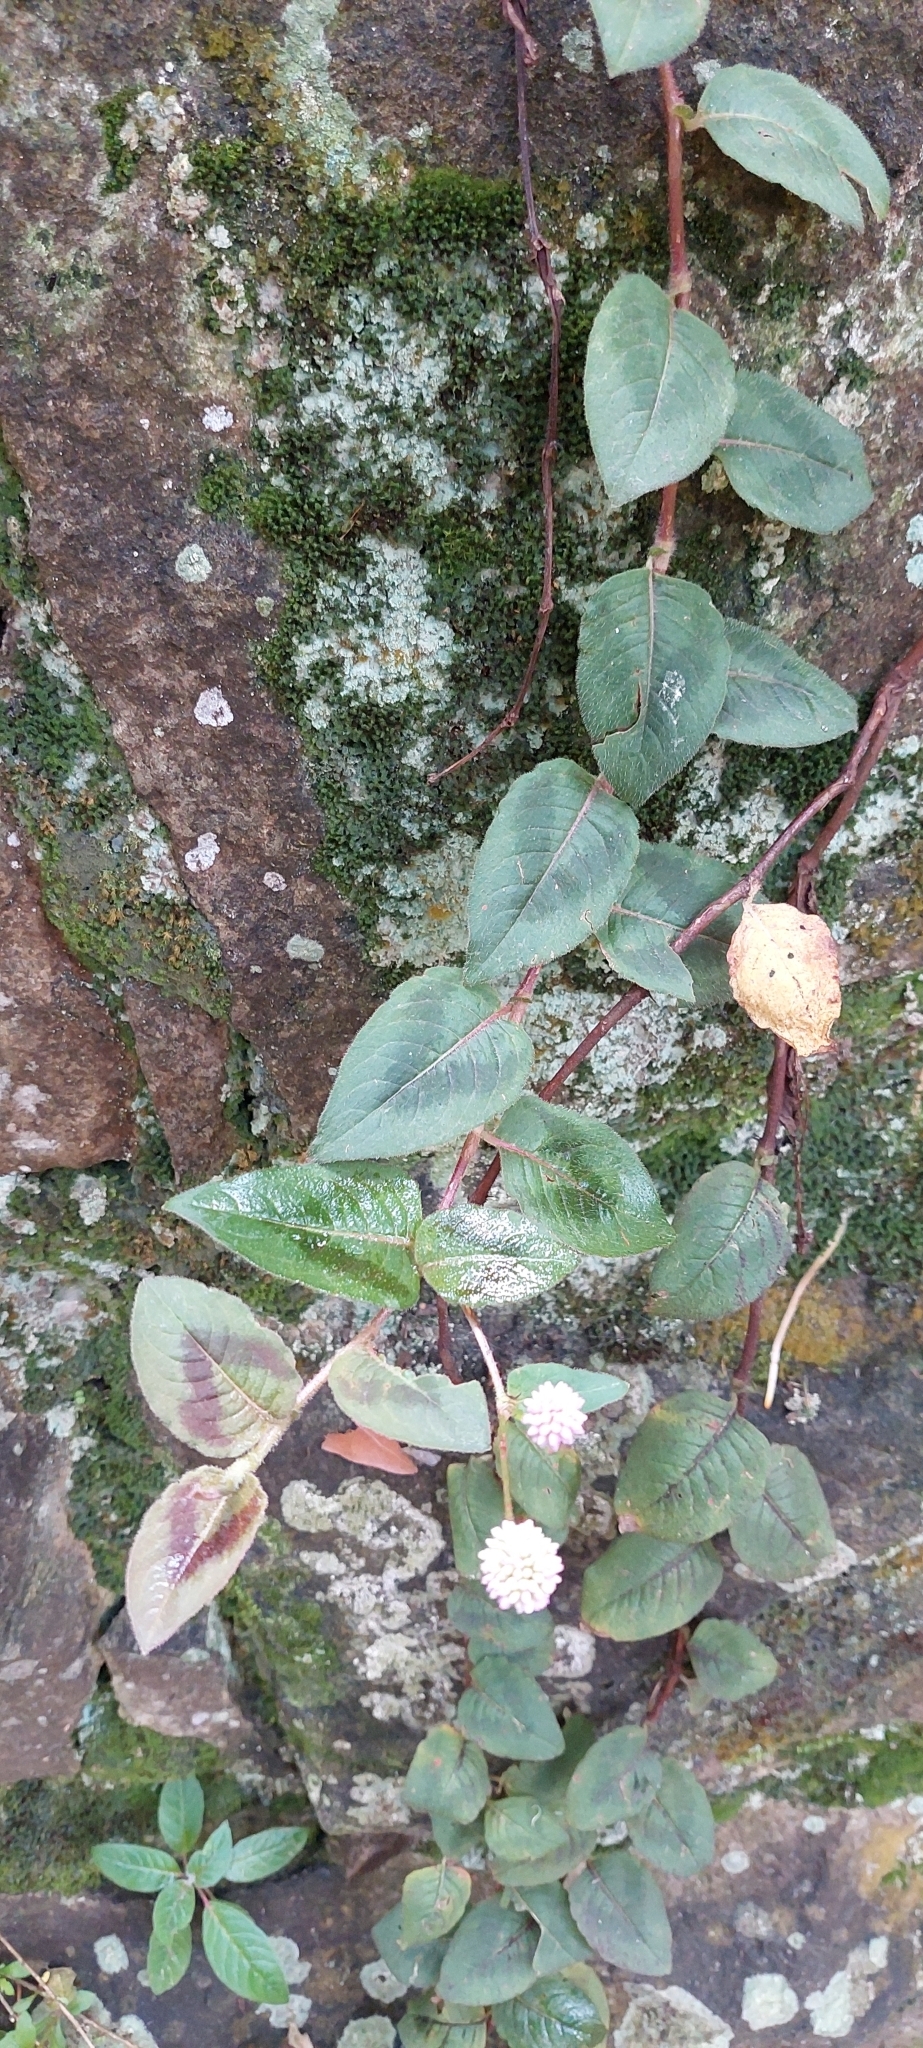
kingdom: Plantae
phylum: Tracheophyta
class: Magnoliopsida
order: Caryophyllales
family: Polygonaceae
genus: Persicaria
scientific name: Persicaria capitata
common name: Pinkhead smartweed
